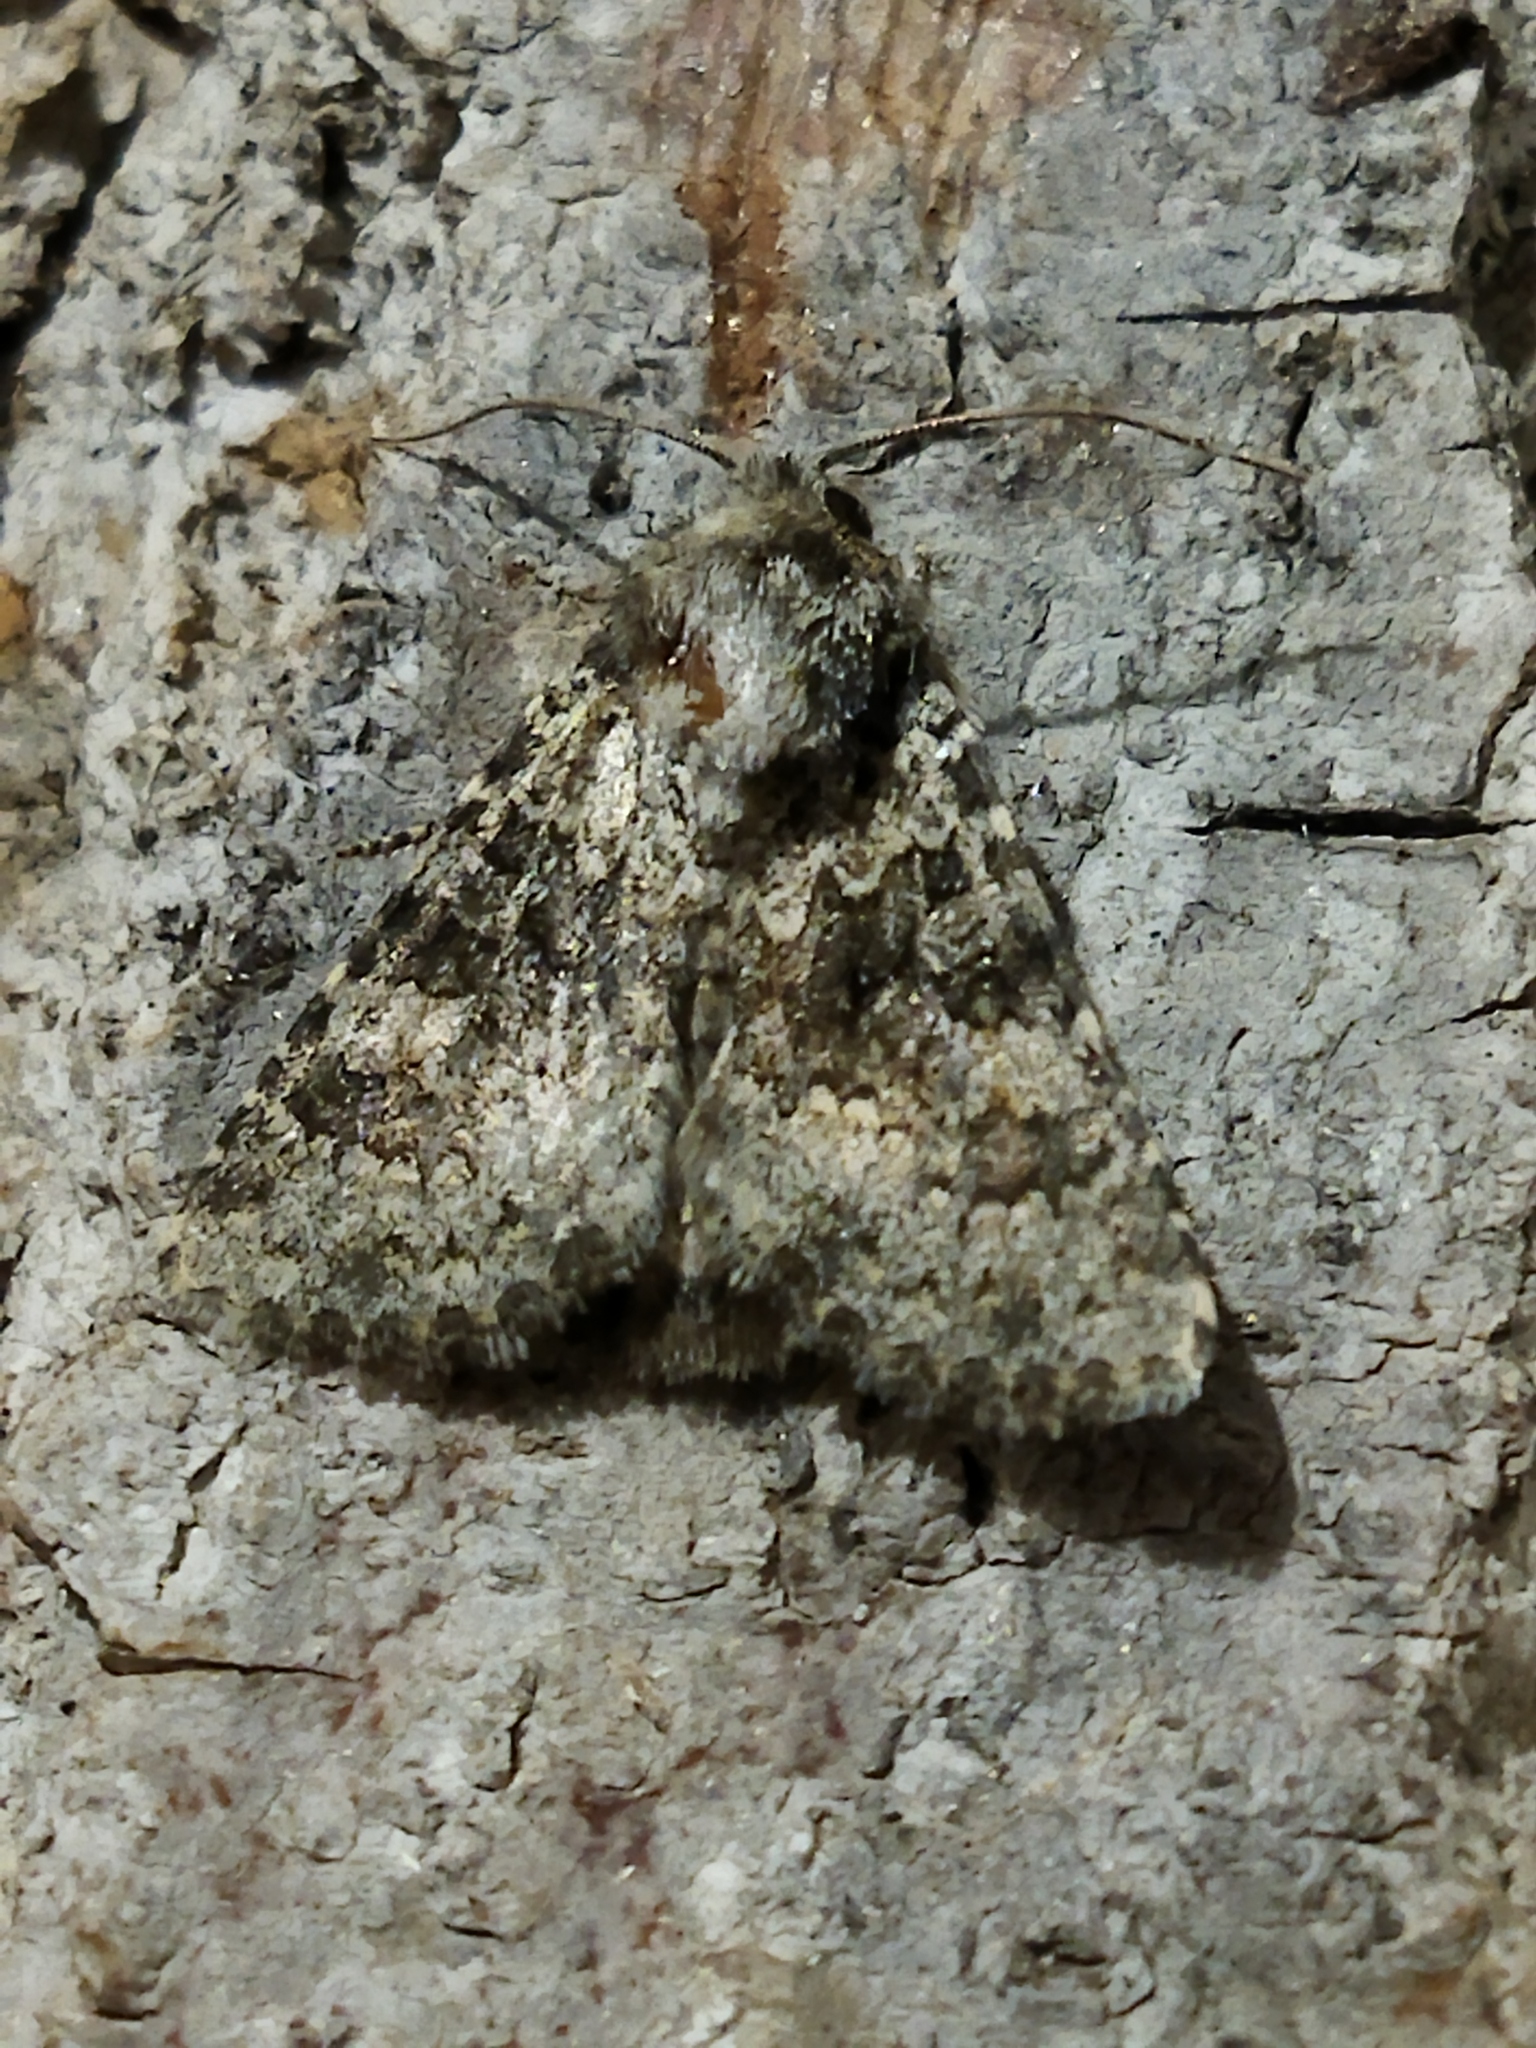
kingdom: Animalia
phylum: Arthropoda
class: Insecta
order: Lepidoptera
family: Noctuidae
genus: Hecatera
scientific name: Hecatera dysodea
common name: Small ranunculus
